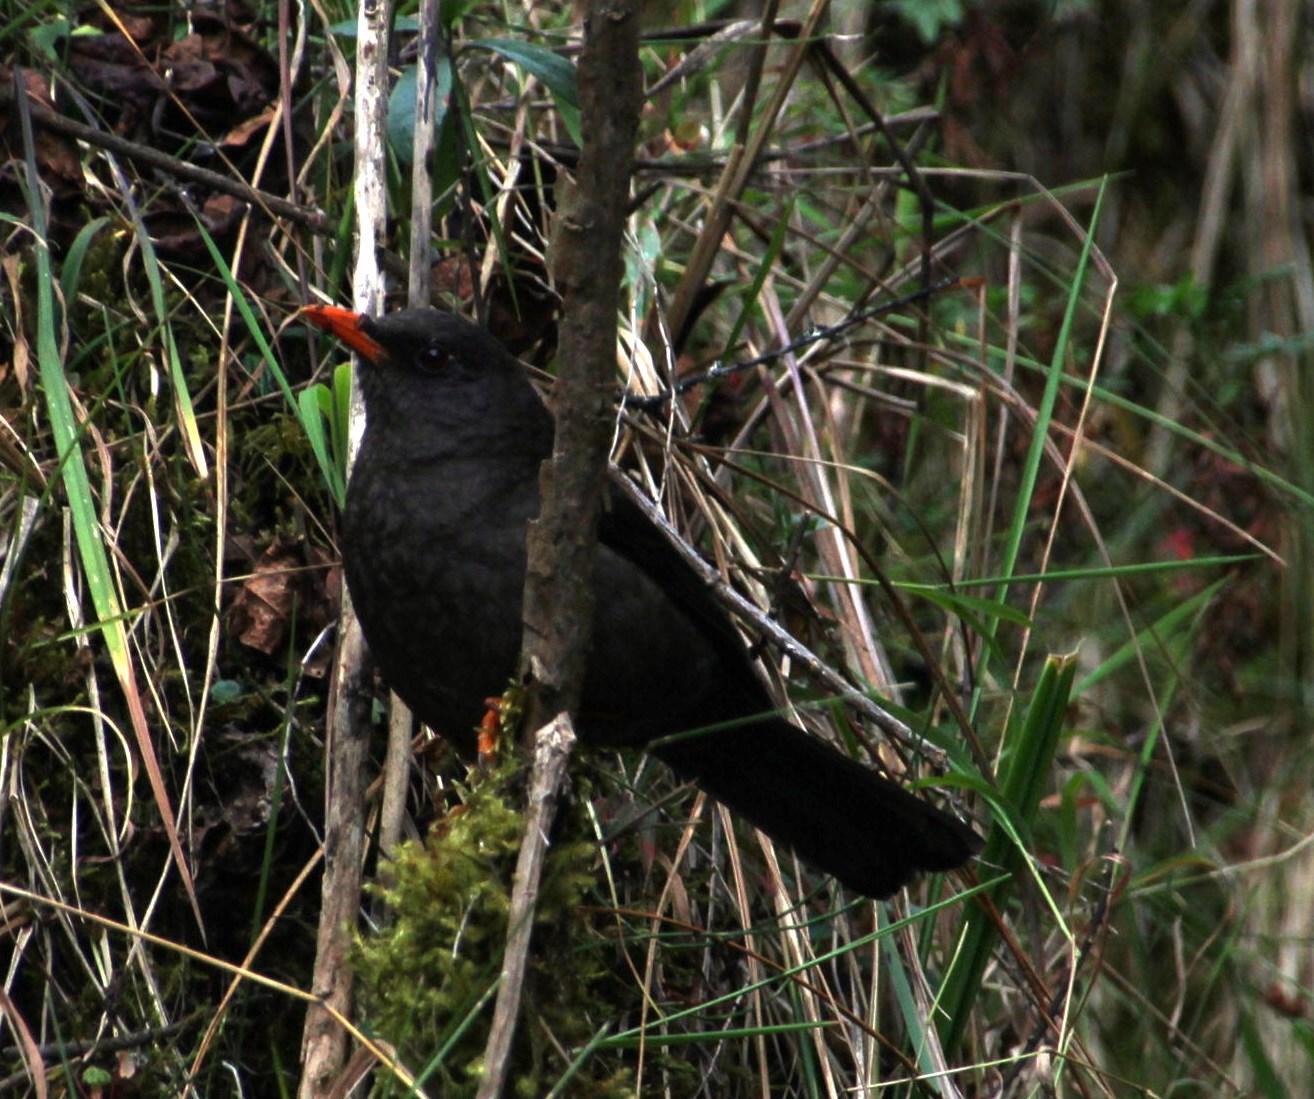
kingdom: Animalia
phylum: Chordata
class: Aves
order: Passeriformes
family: Turdidae
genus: Turdus
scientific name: Turdus chiguanco
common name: Chiguanco thrush
